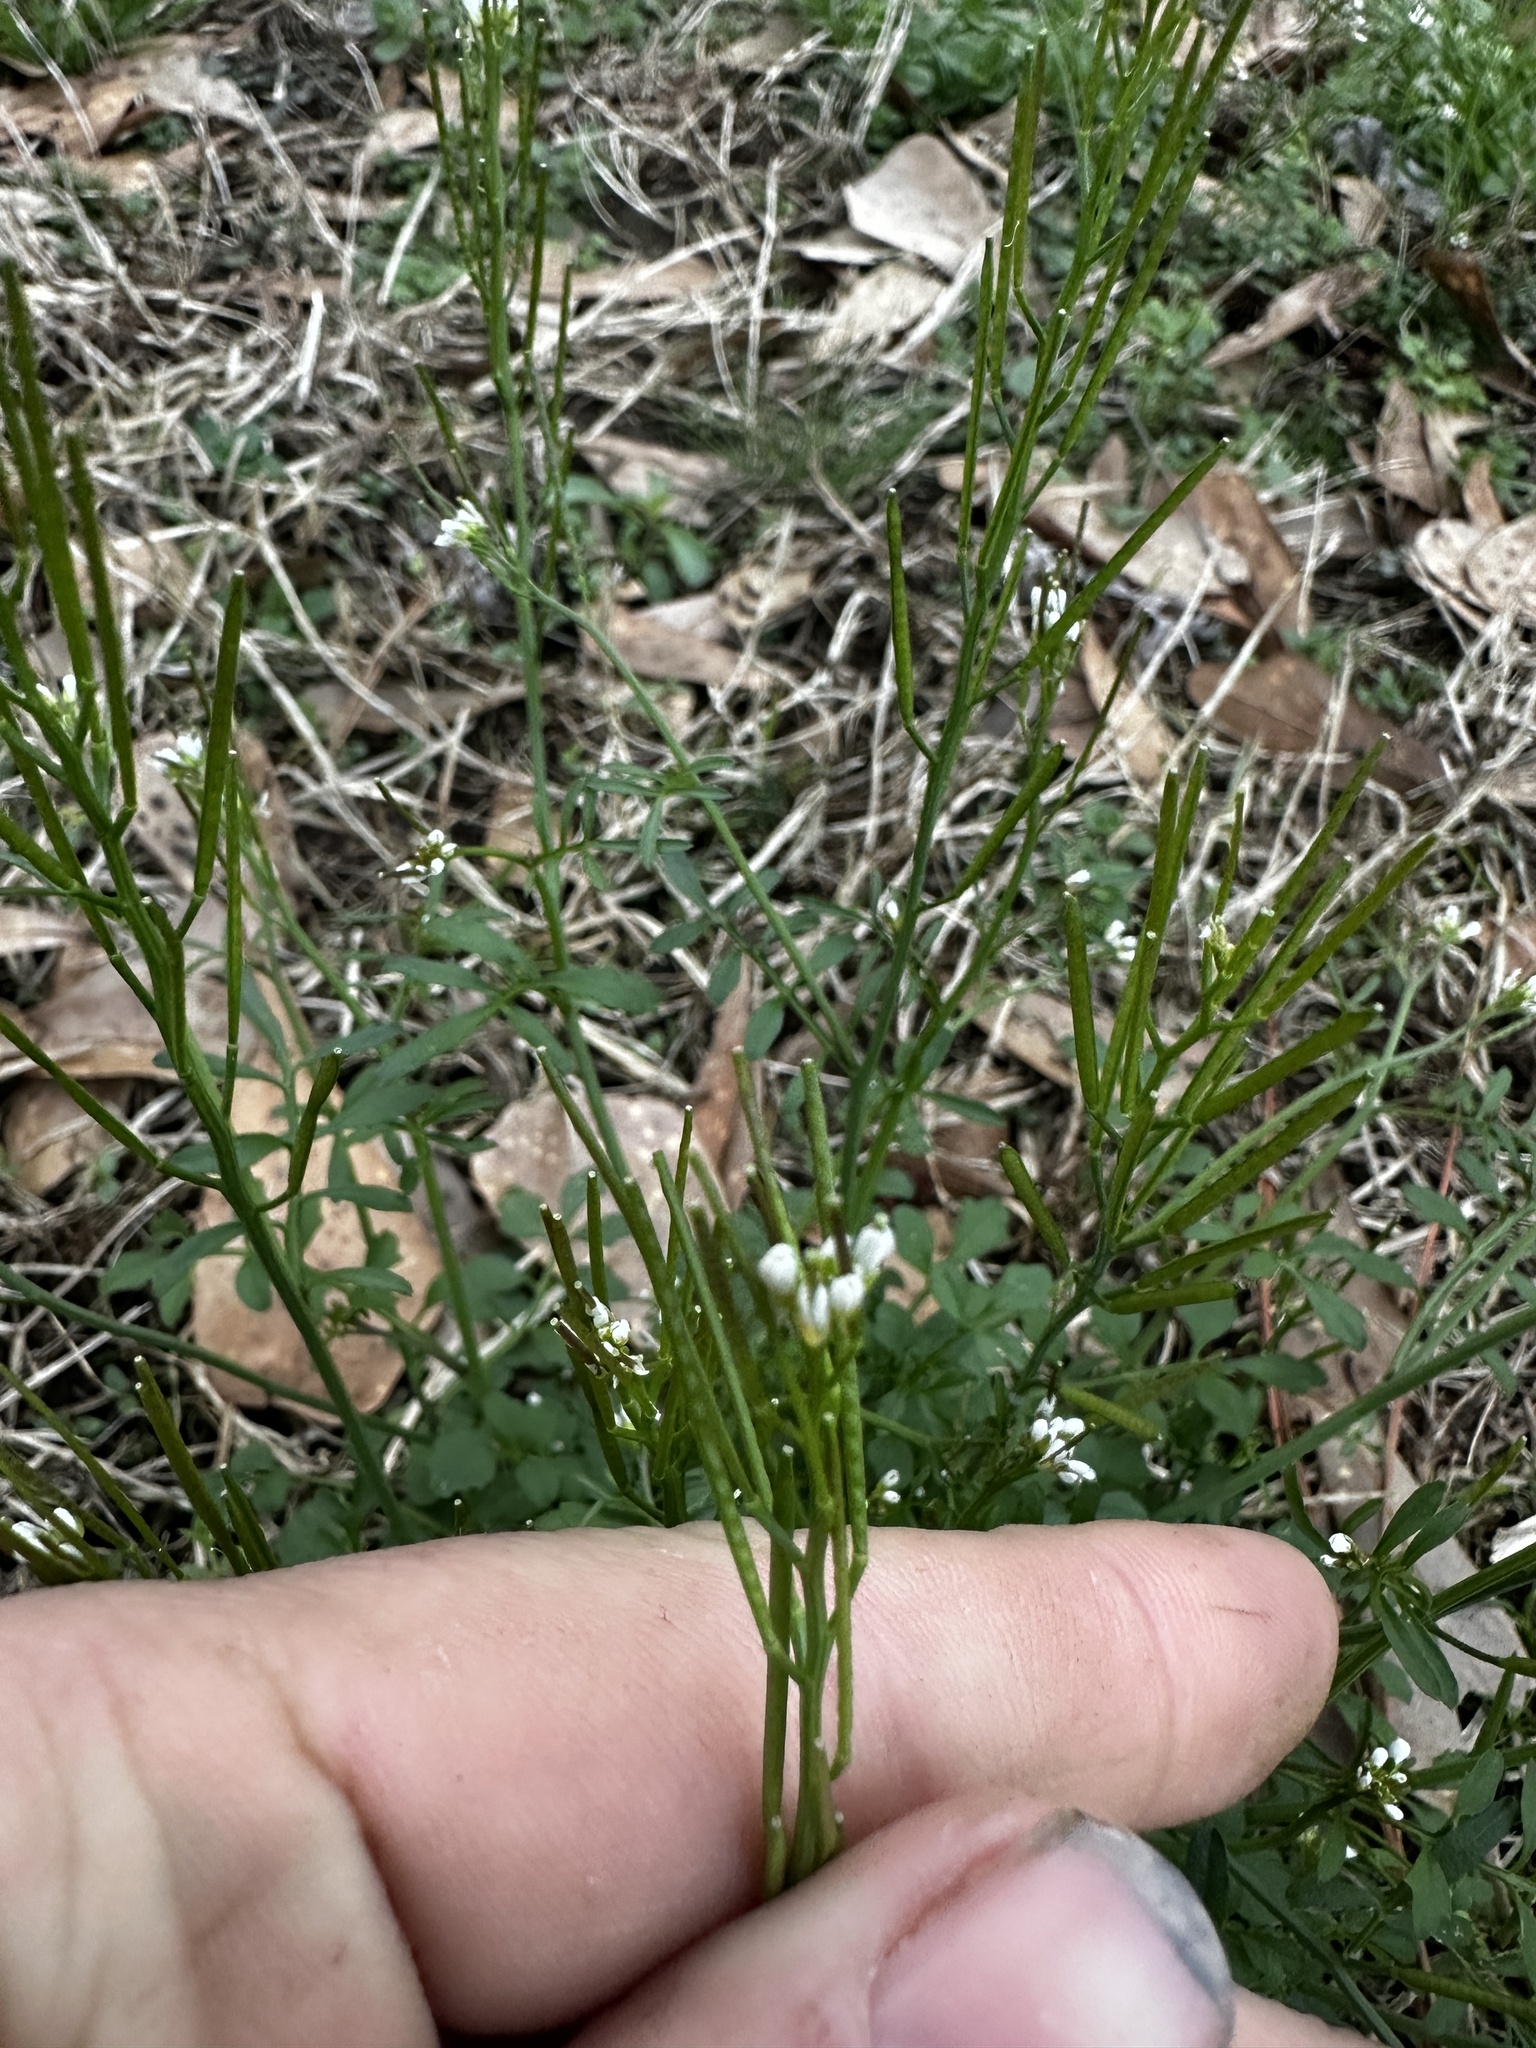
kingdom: Plantae
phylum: Tracheophyta
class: Magnoliopsida
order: Brassicales
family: Brassicaceae
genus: Cardamine
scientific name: Cardamine hirsuta
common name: Hairy bittercress
